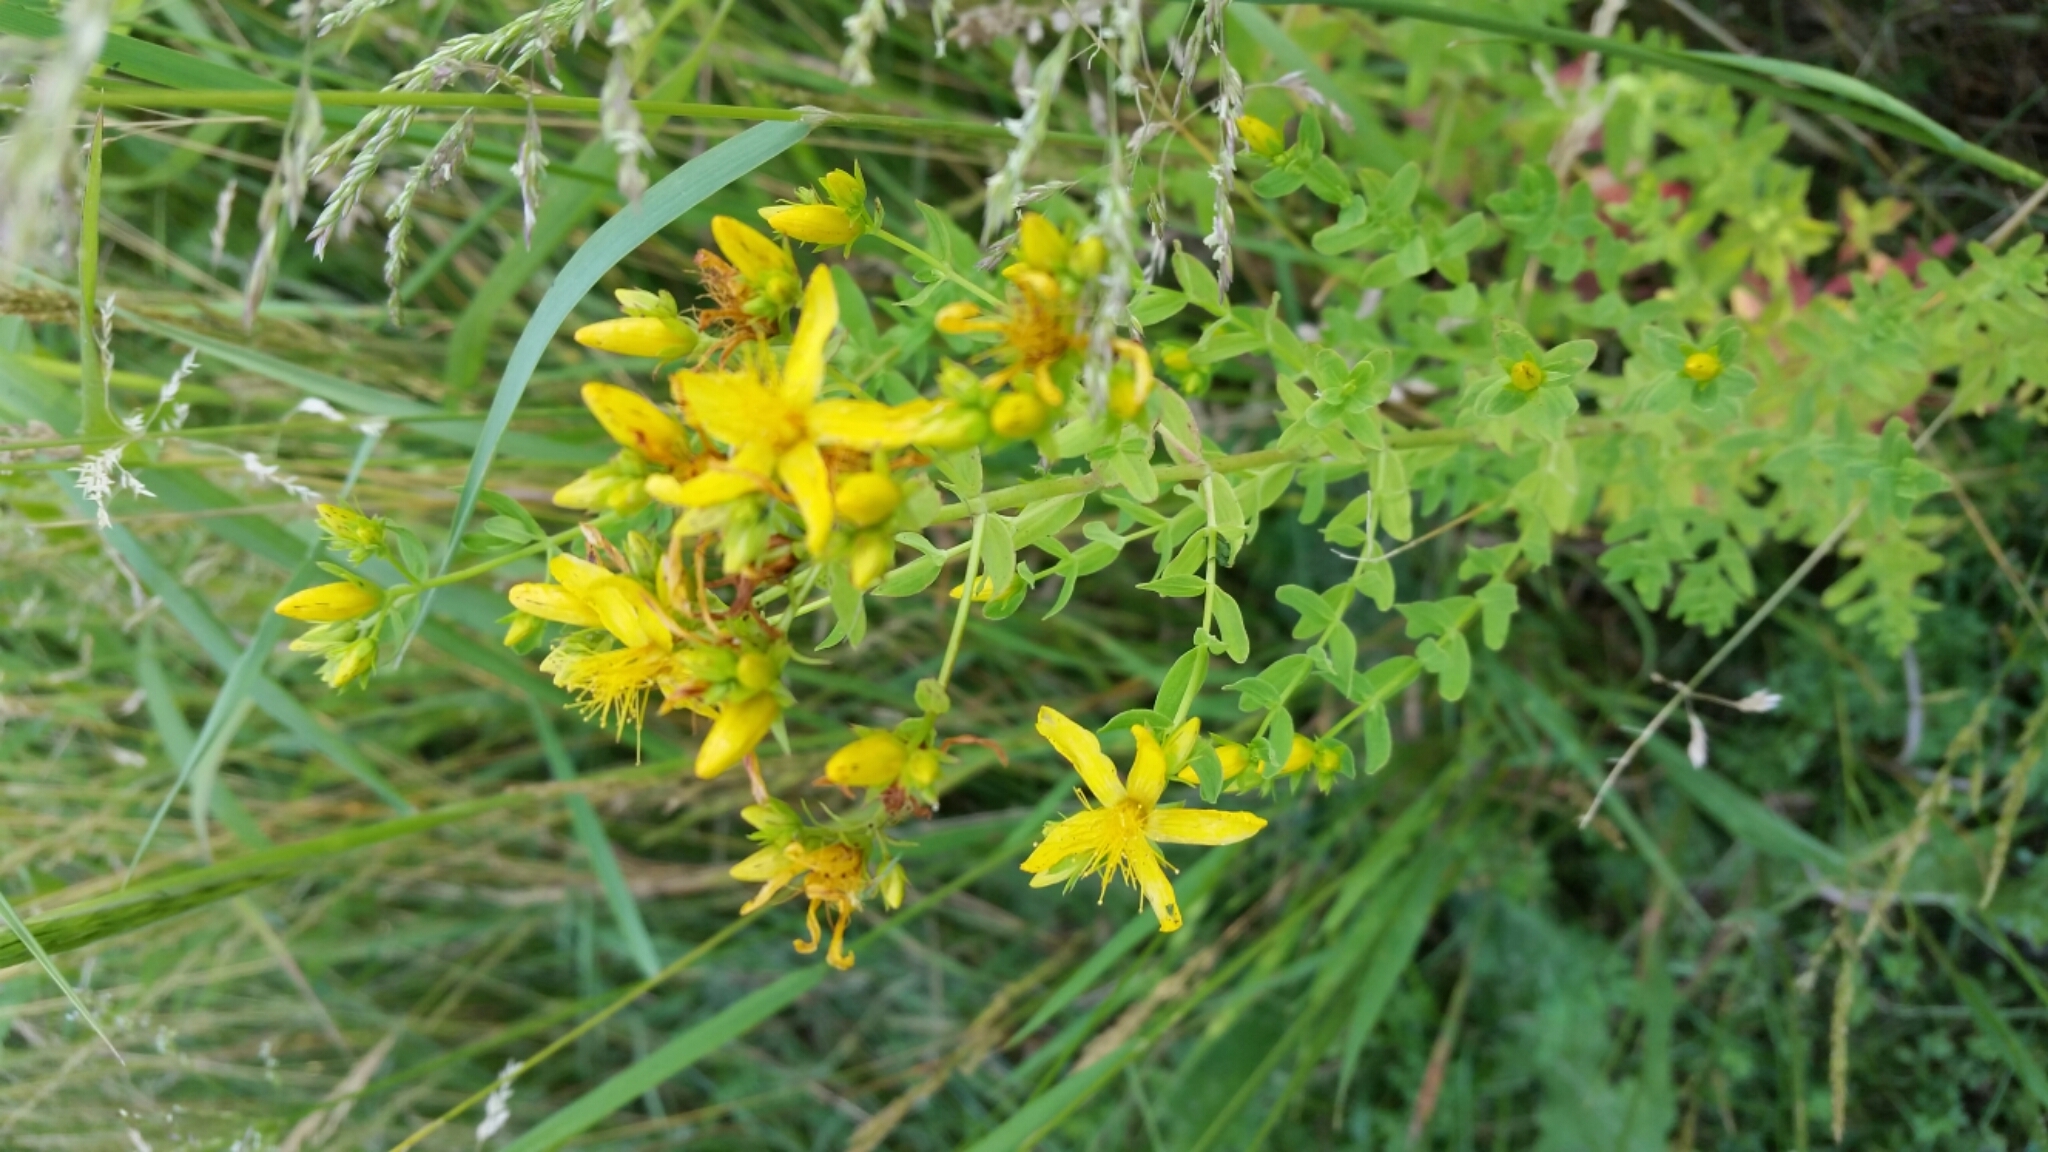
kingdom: Plantae
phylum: Tracheophyta
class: Magnoliopsida
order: Malpighiales
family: Hypericaceae
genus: Hypericum
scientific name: Hypericum perforatum
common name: Common st. johnswort
